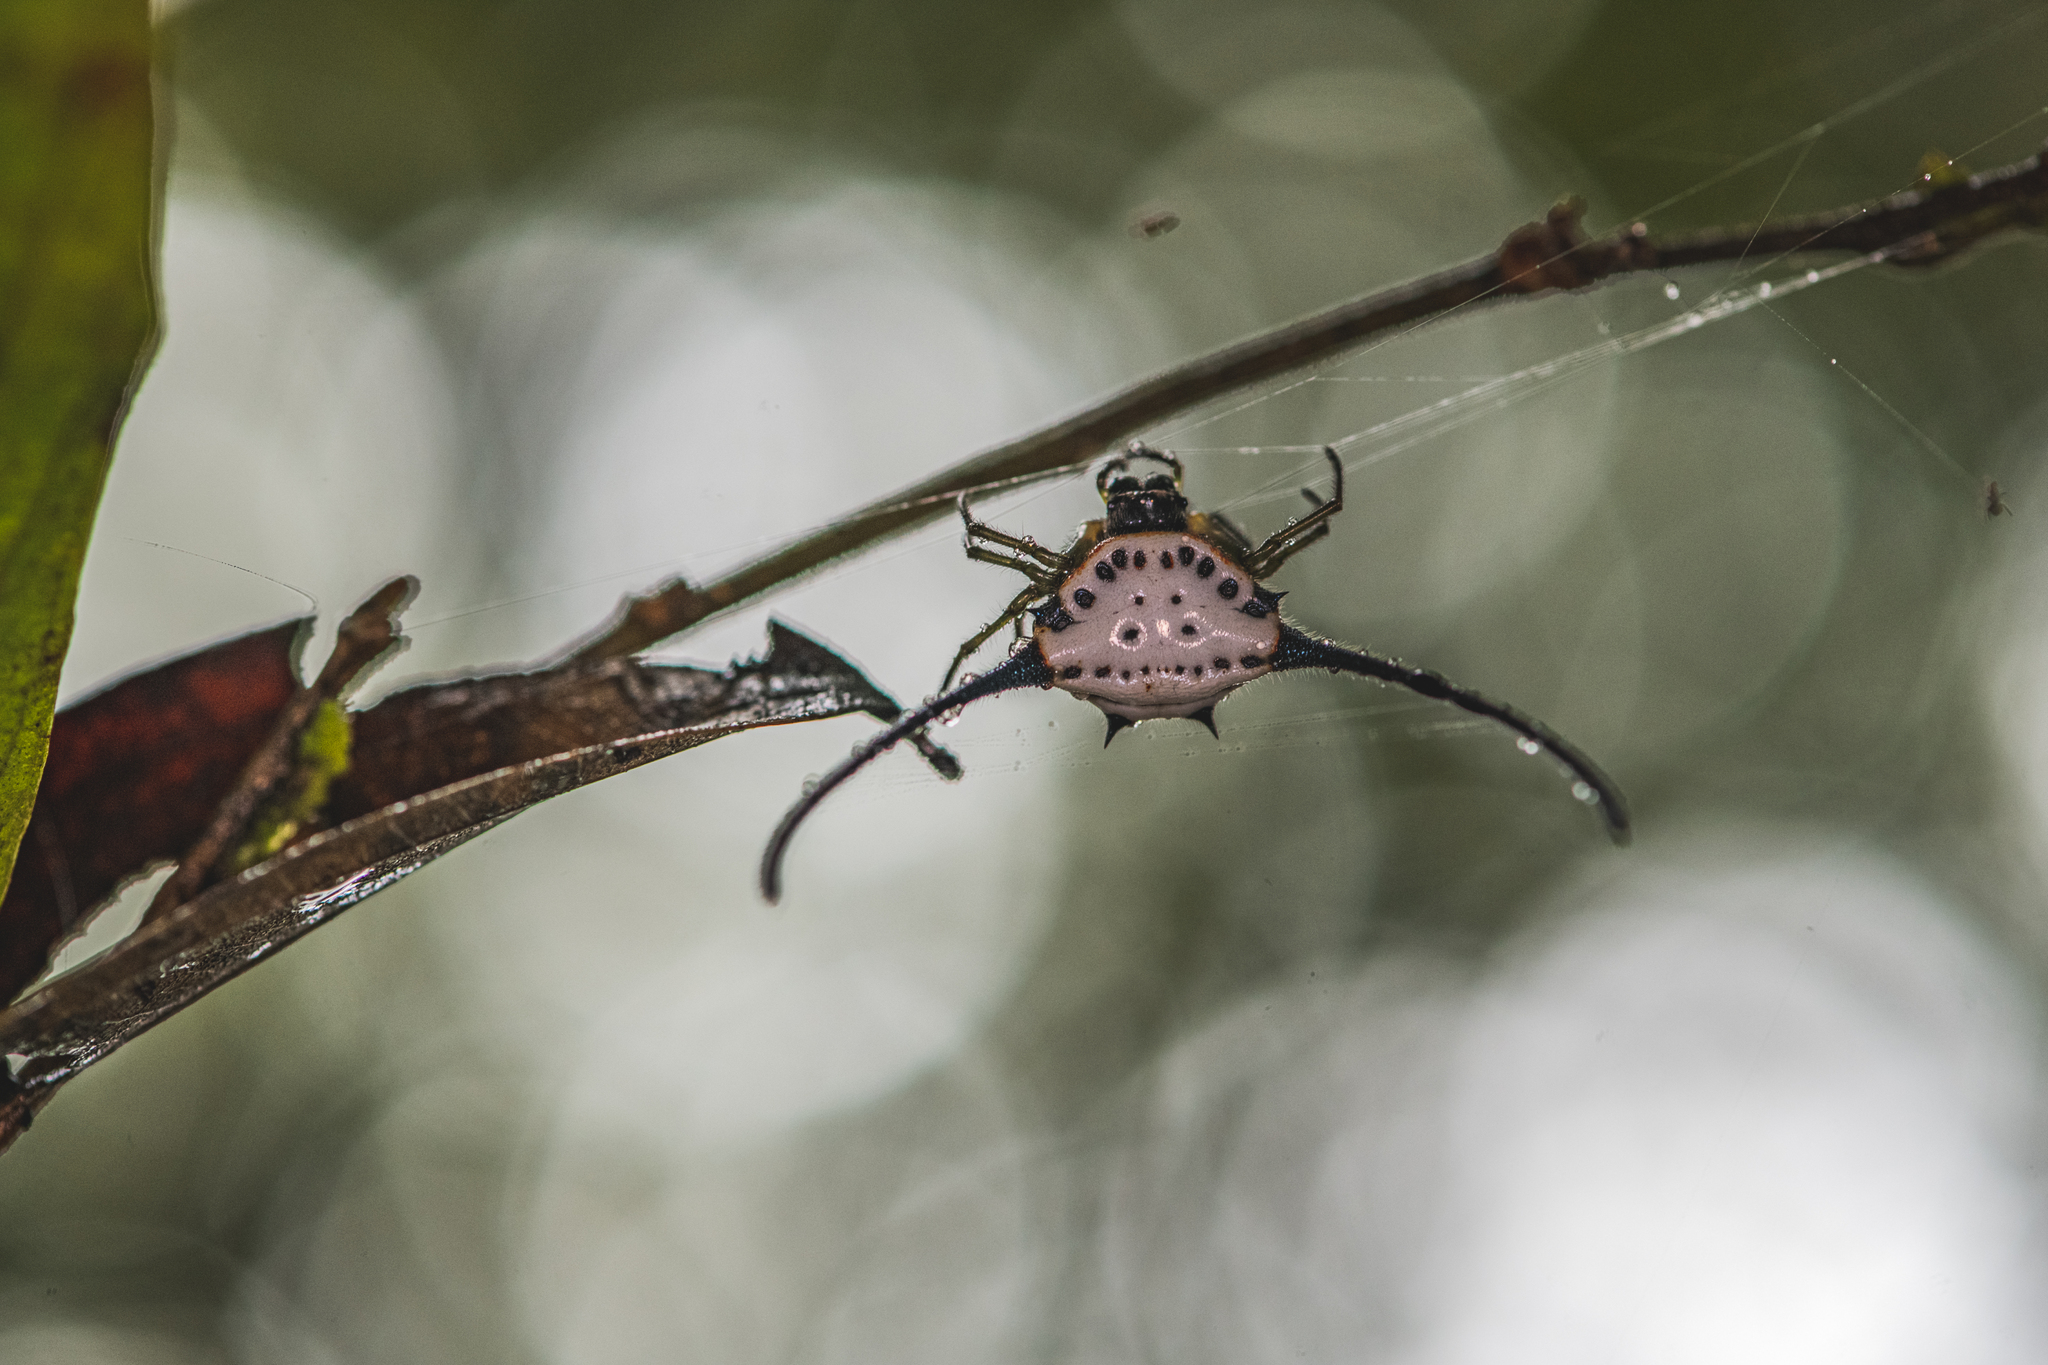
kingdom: Animalia
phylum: Arthropoda
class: Arachnida
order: Araneae
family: Araneidae
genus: Macracantha
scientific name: Macracantha arcuata
